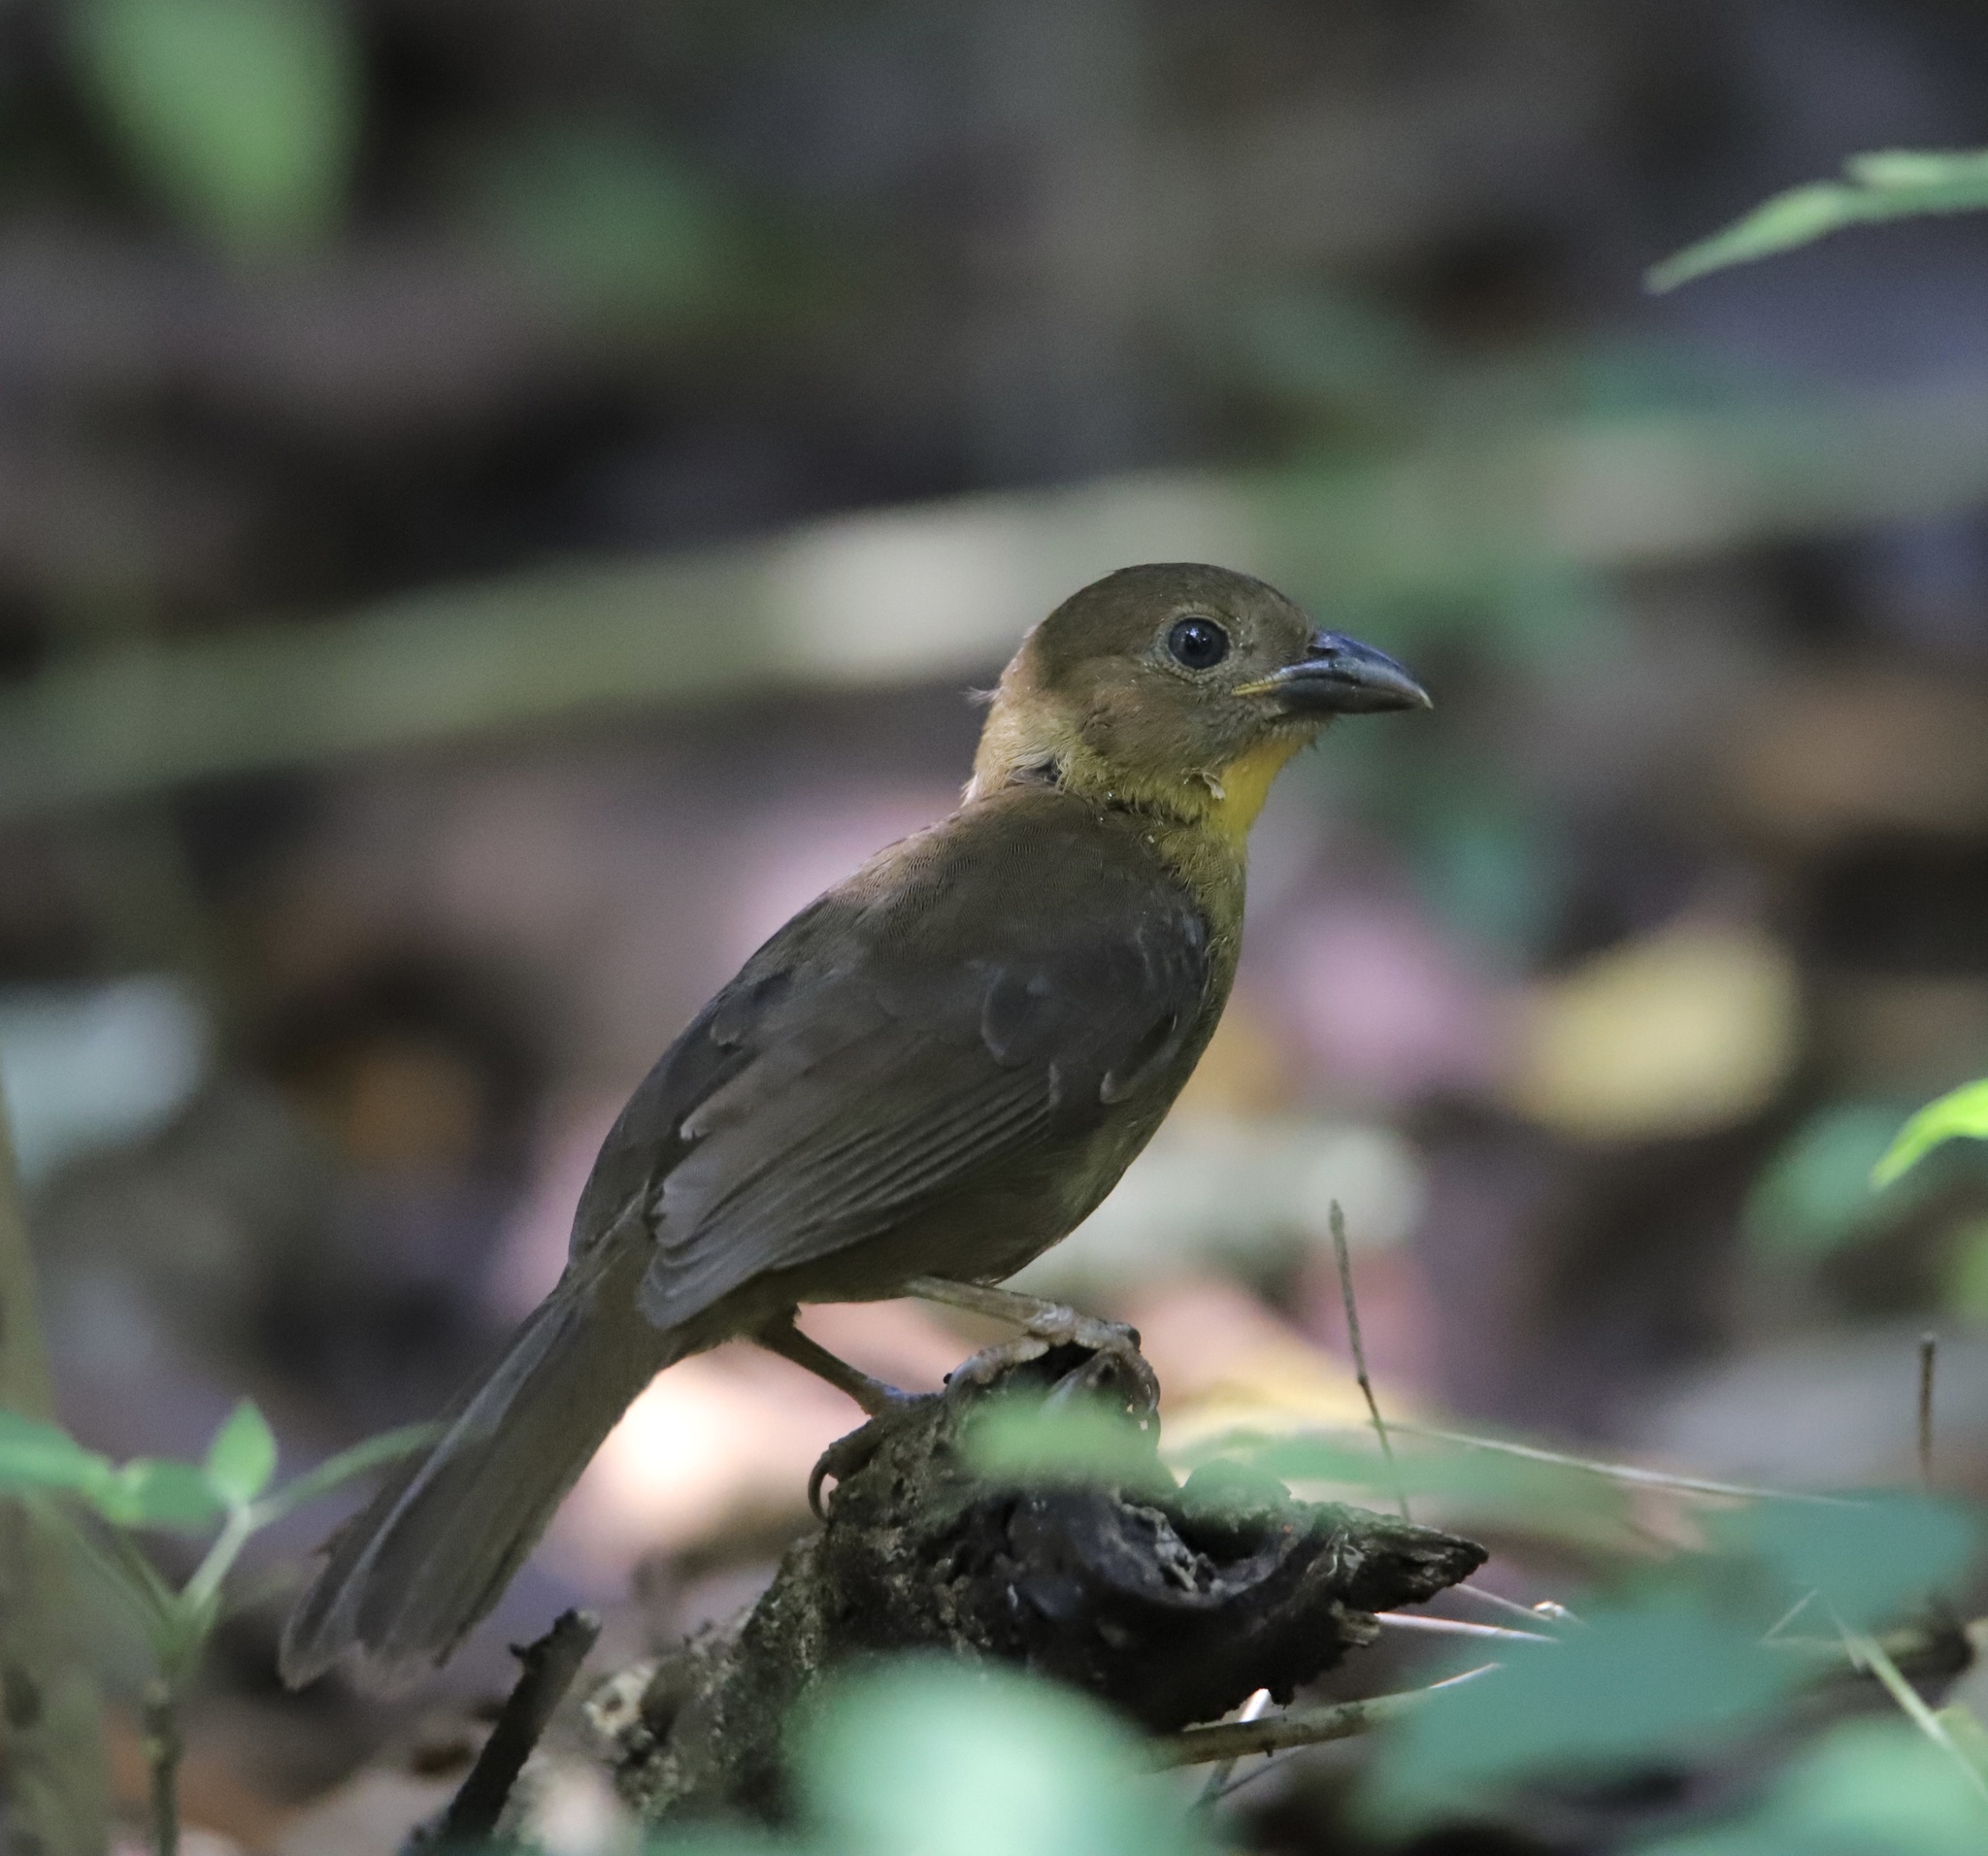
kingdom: Animalia
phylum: Chordata
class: Aves
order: Passeriformes
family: Cardinalidae
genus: Habia
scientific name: Habia fuscicauda
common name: Red-throated ant-tanager
